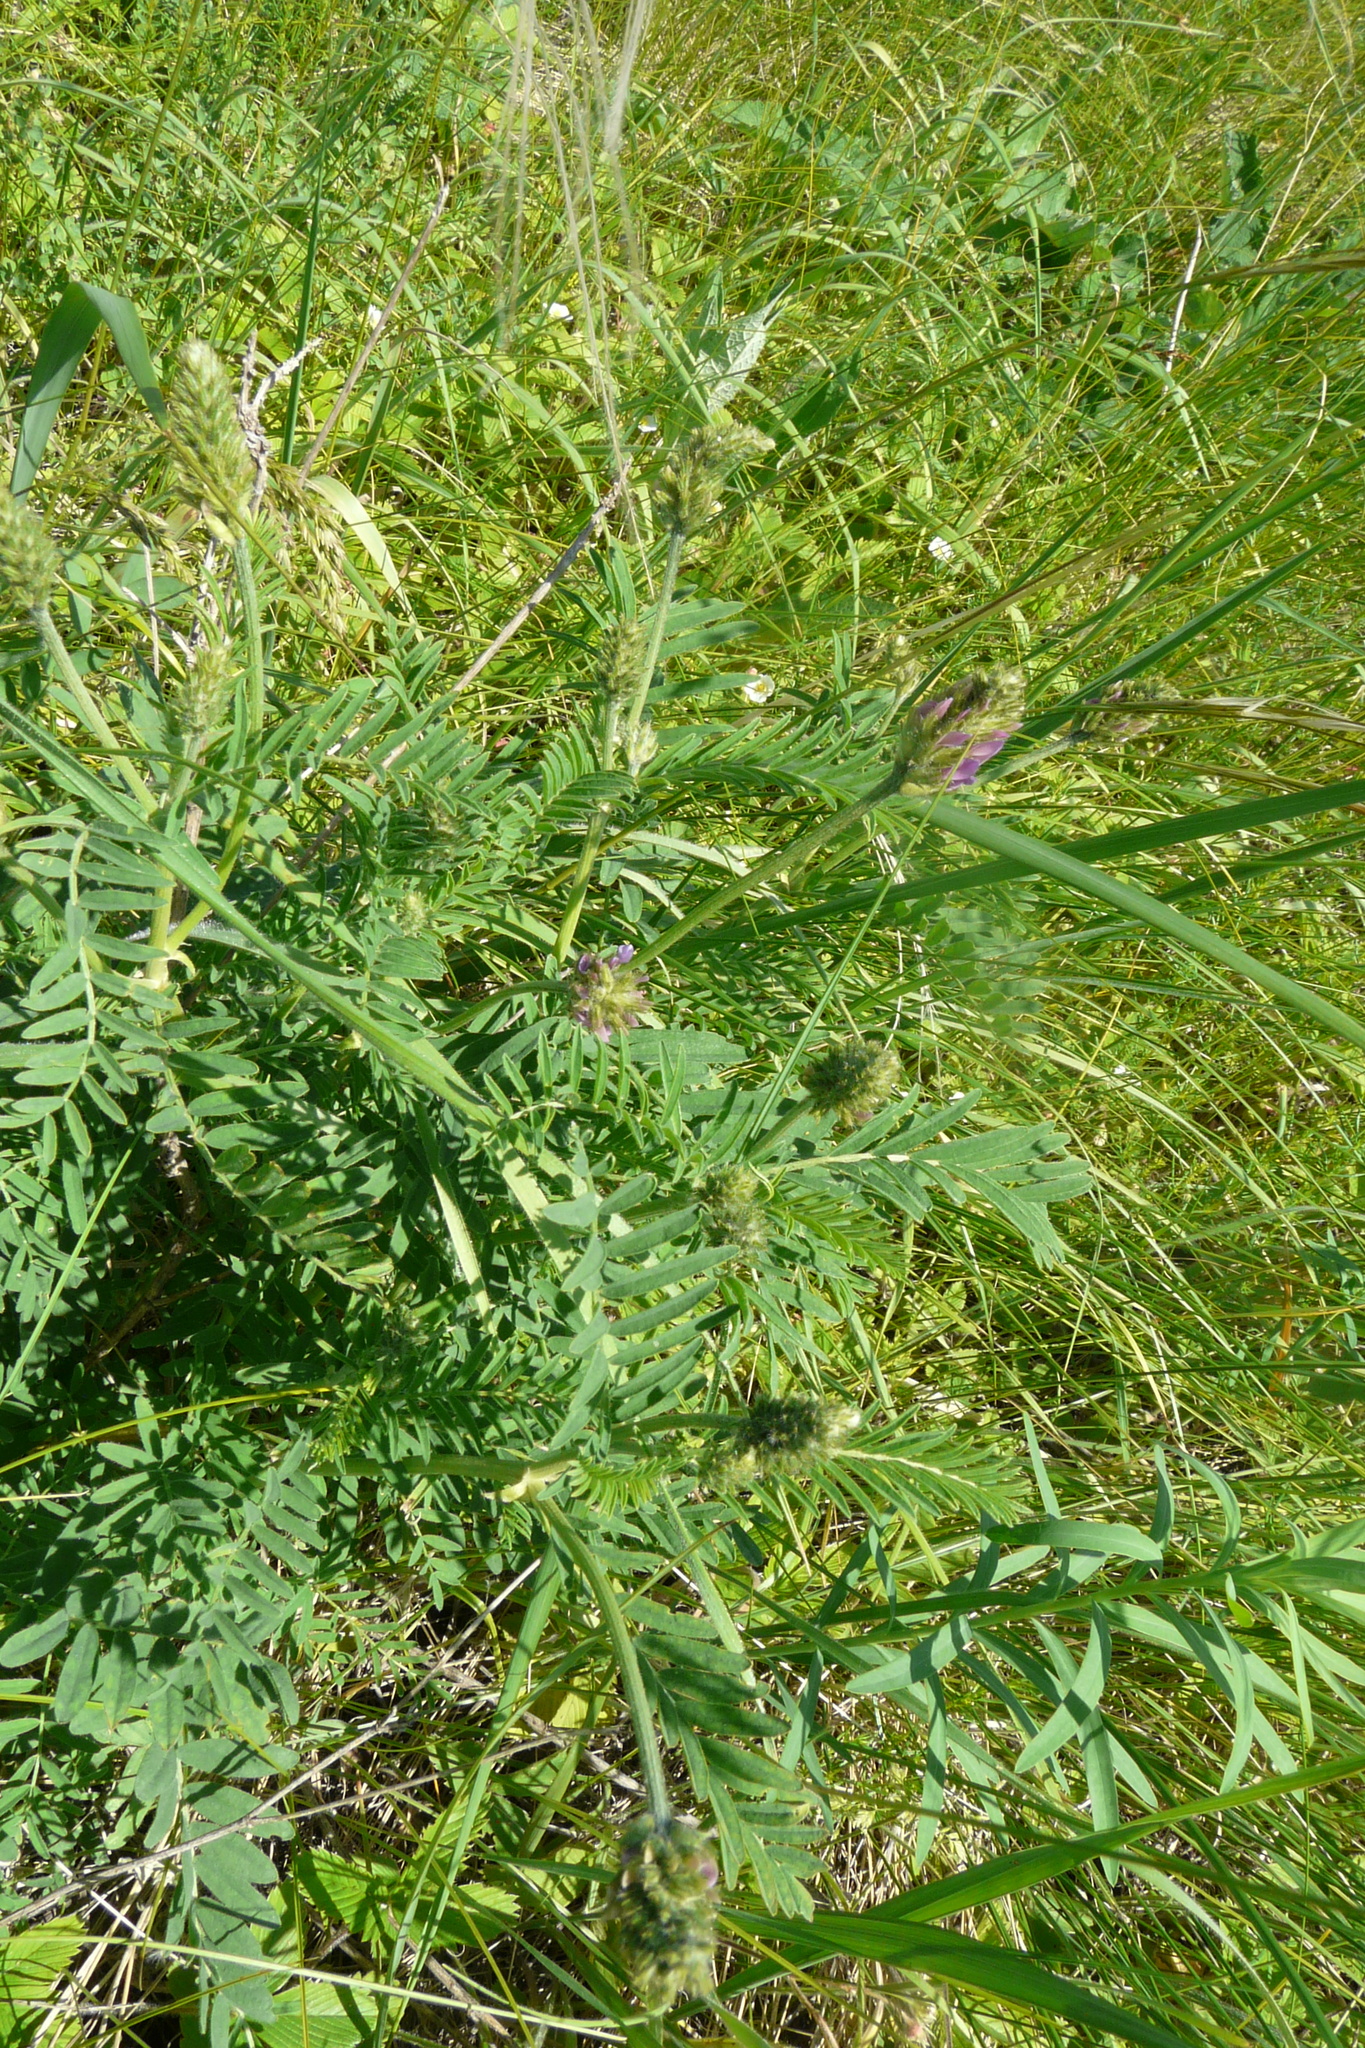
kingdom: Plantae
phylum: Tracheophyta
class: Magnoliopsida
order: Fabales
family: Fabaceae
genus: Astragalus
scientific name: Astragalus onobrychis
